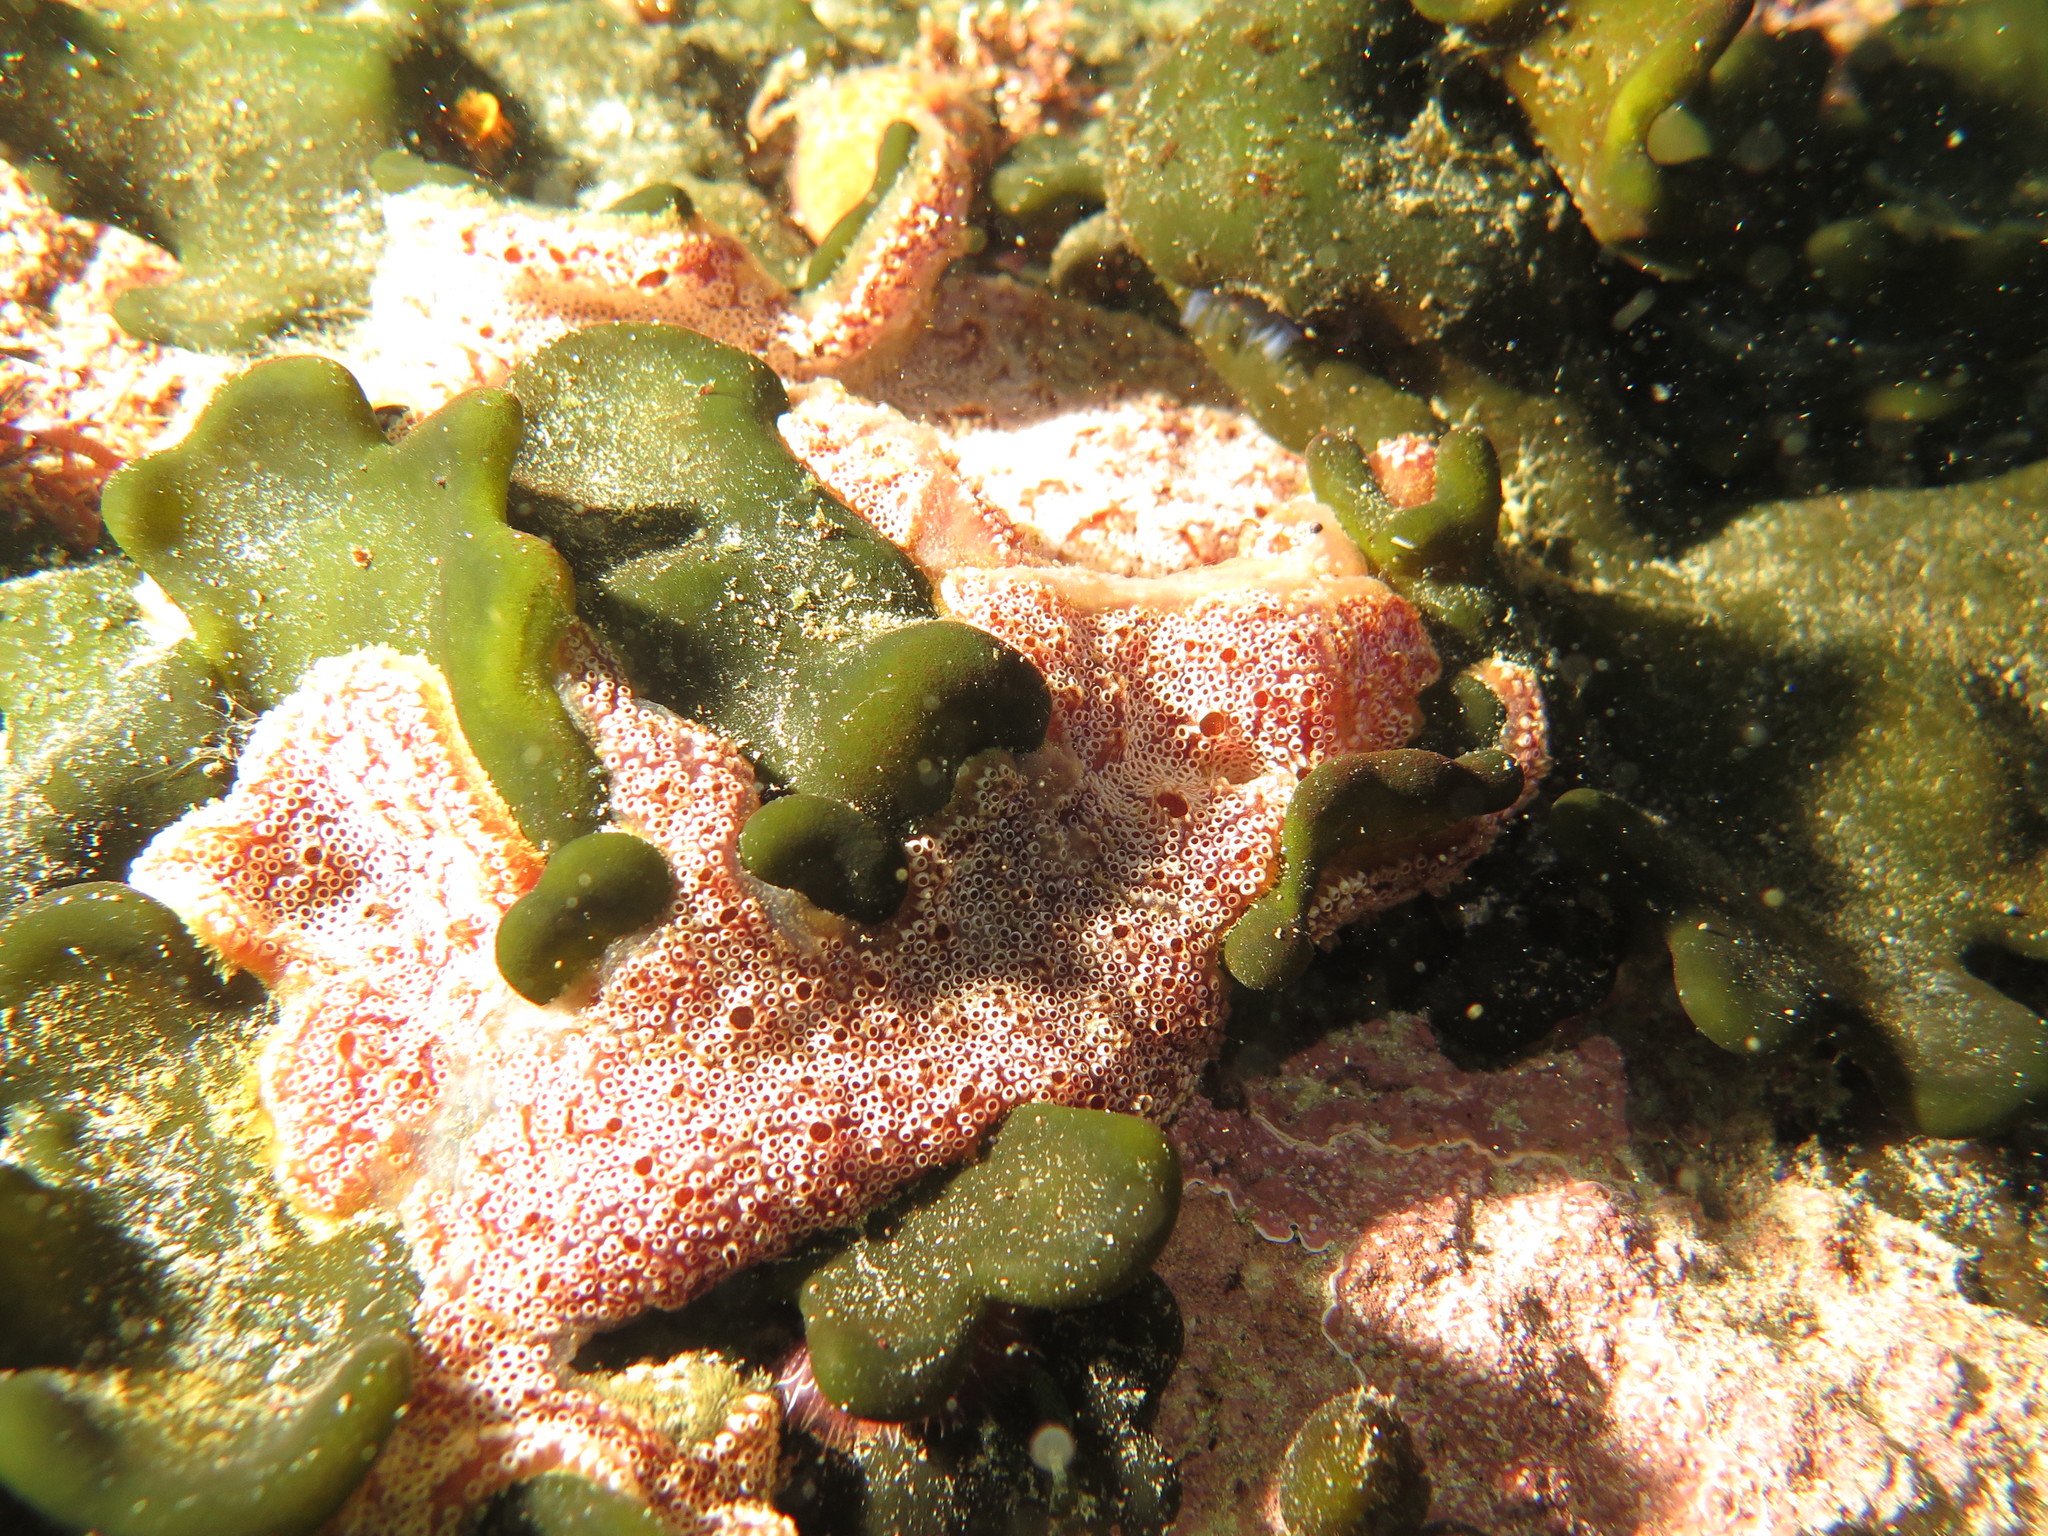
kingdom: Animalia
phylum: Chordata
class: Ascidiacea
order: Stolidobranchia
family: Styelidae
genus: Botrylloides
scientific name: Botrylloides leachii
